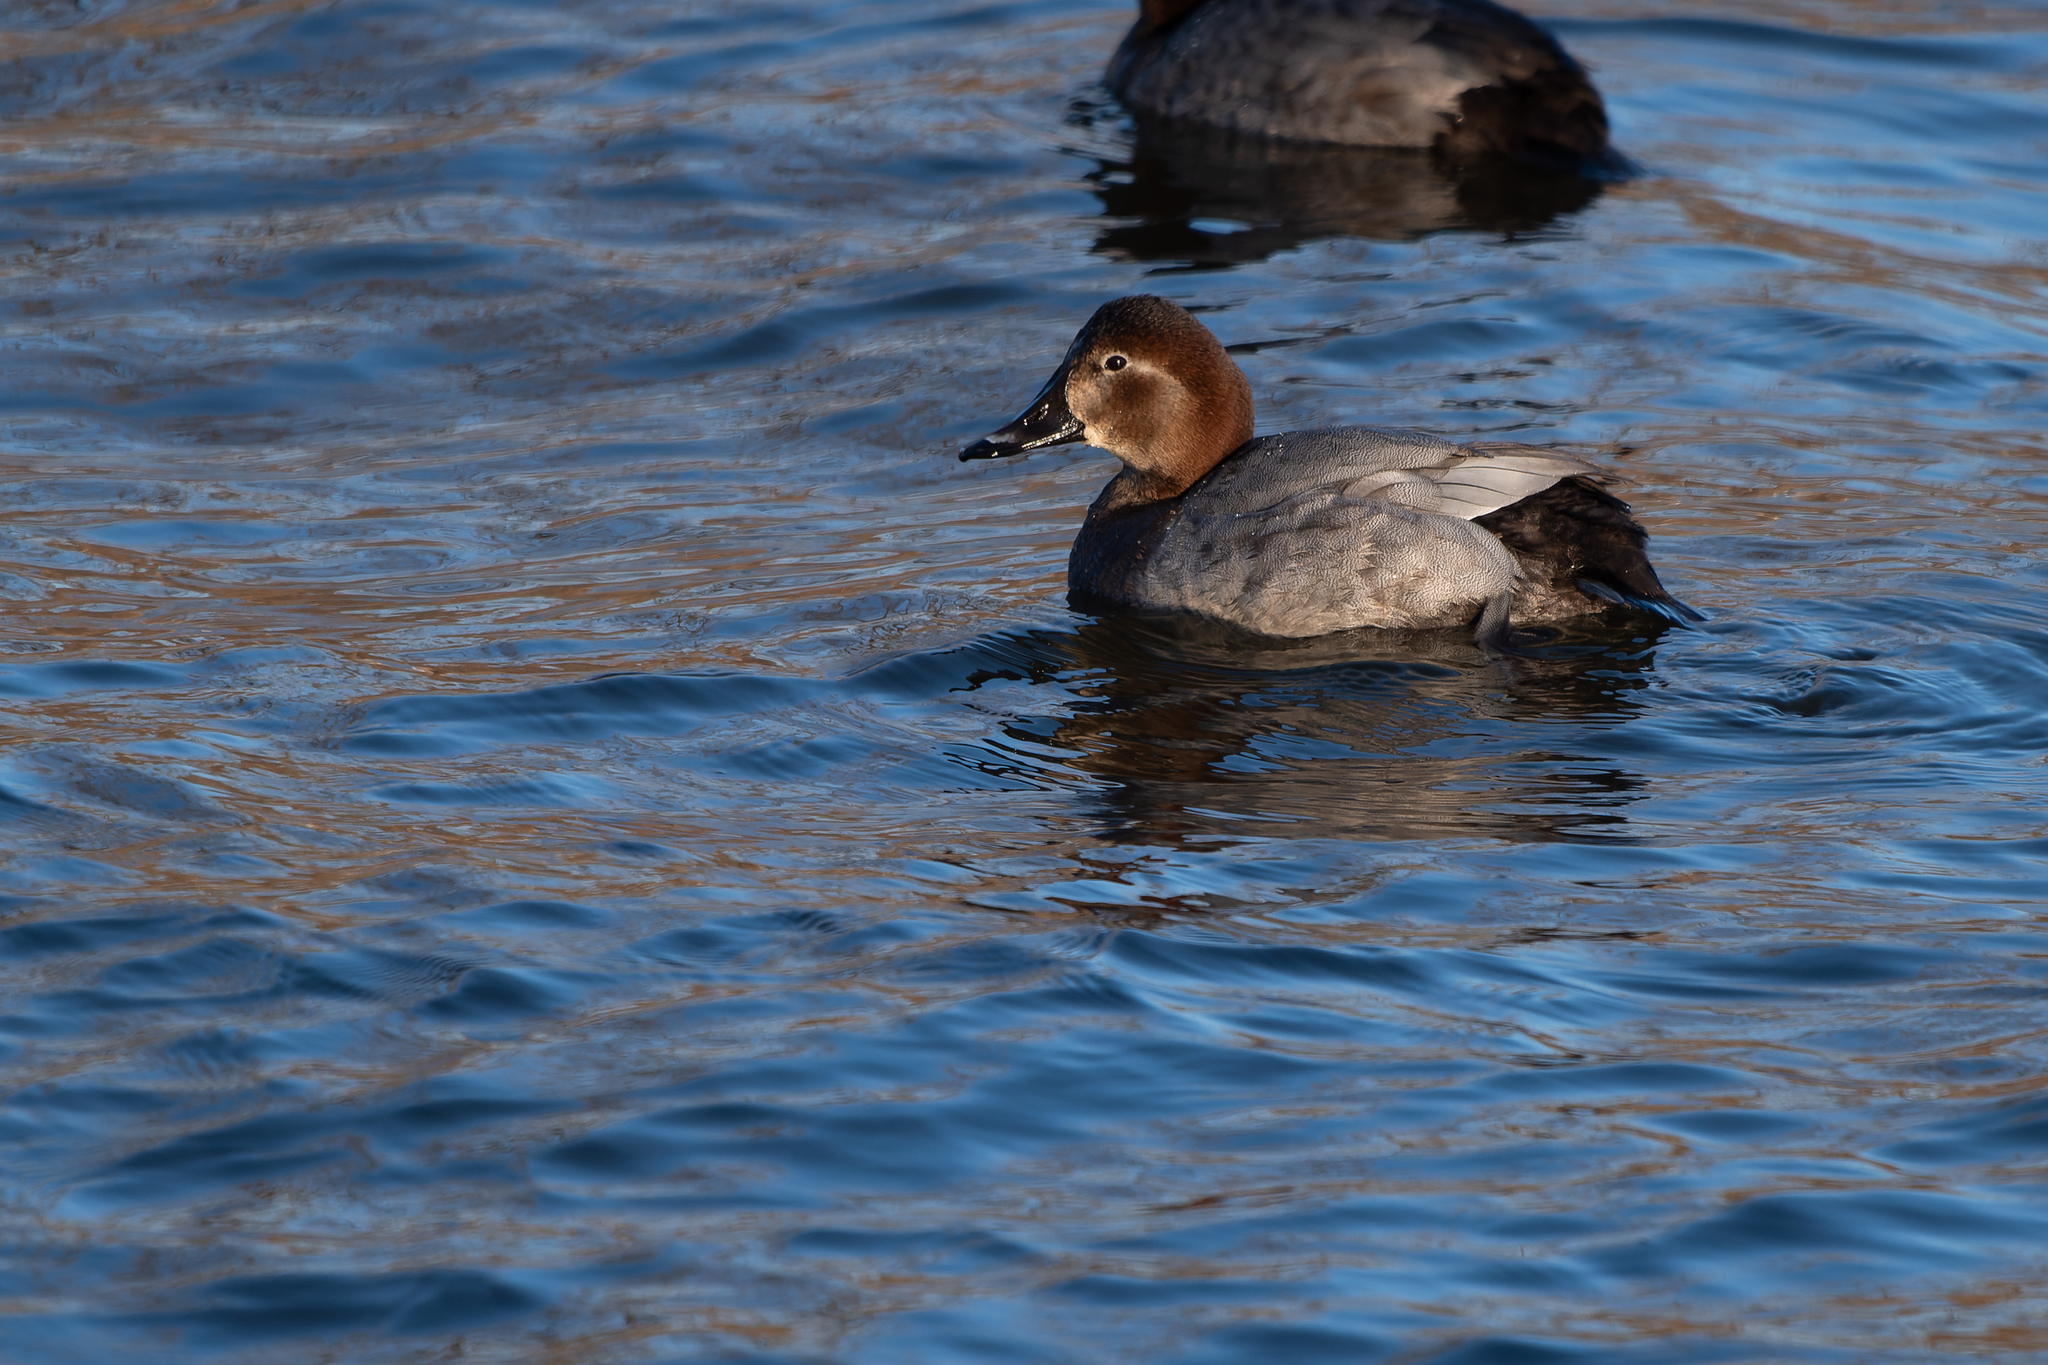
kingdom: Animalia
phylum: Chordata
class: Aves
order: Anseriformes
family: Anatidae
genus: Aythya
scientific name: Aythya ferina
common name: Common pochard
